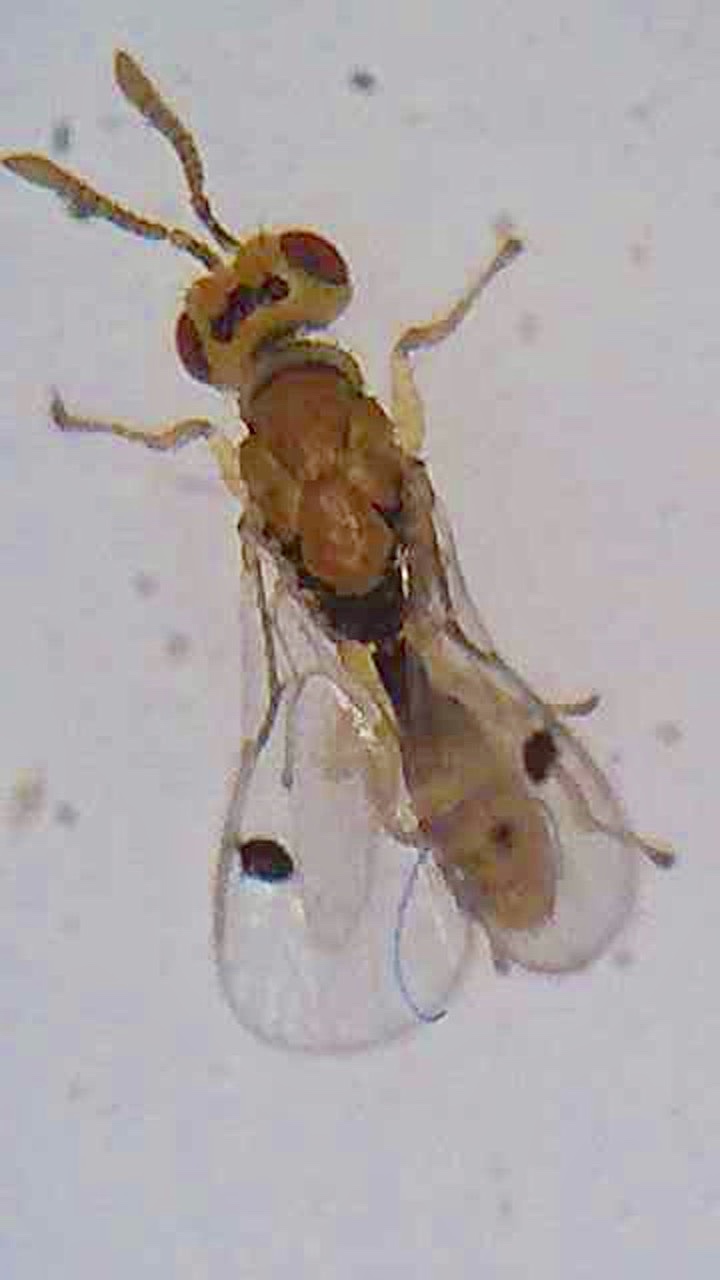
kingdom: Animalia
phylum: Arthropoda
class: Insecta
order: Hymenoptera
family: Torymidae
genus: Megastigmus
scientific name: Megastigmus
